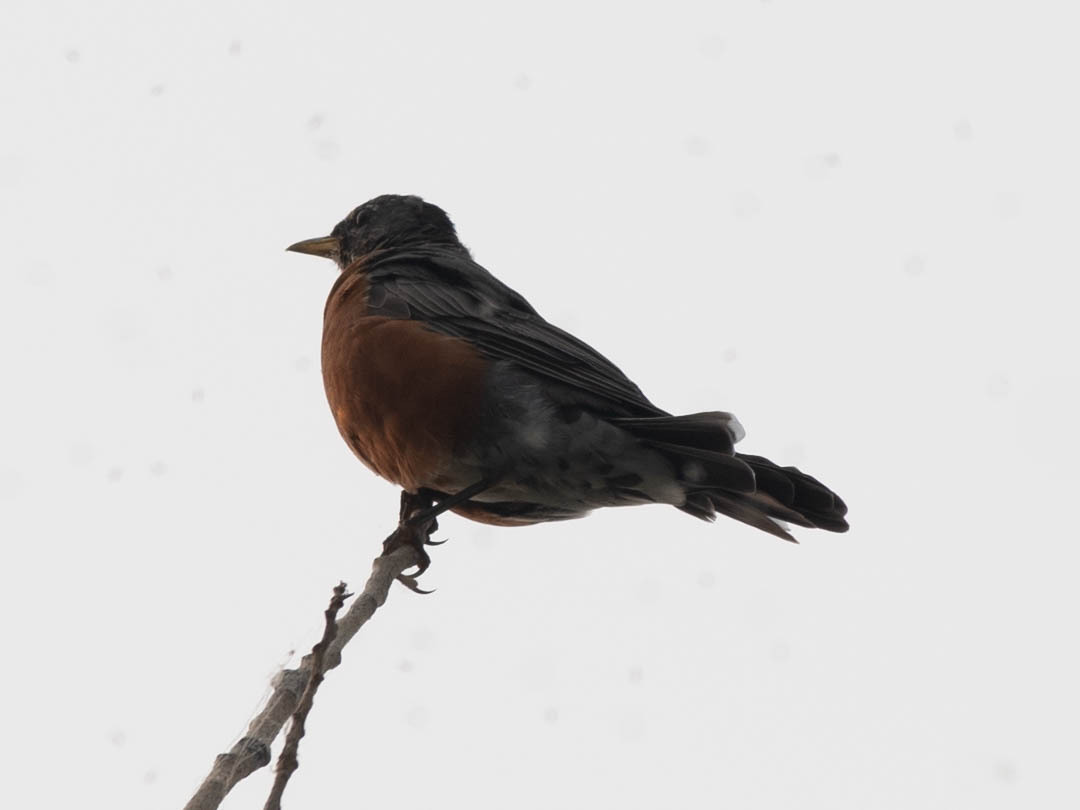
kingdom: Animalia
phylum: Chordata
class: Aves
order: Passeriformes
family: Turdidae
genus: Turdus
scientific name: Turdus migratorius
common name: American robin
